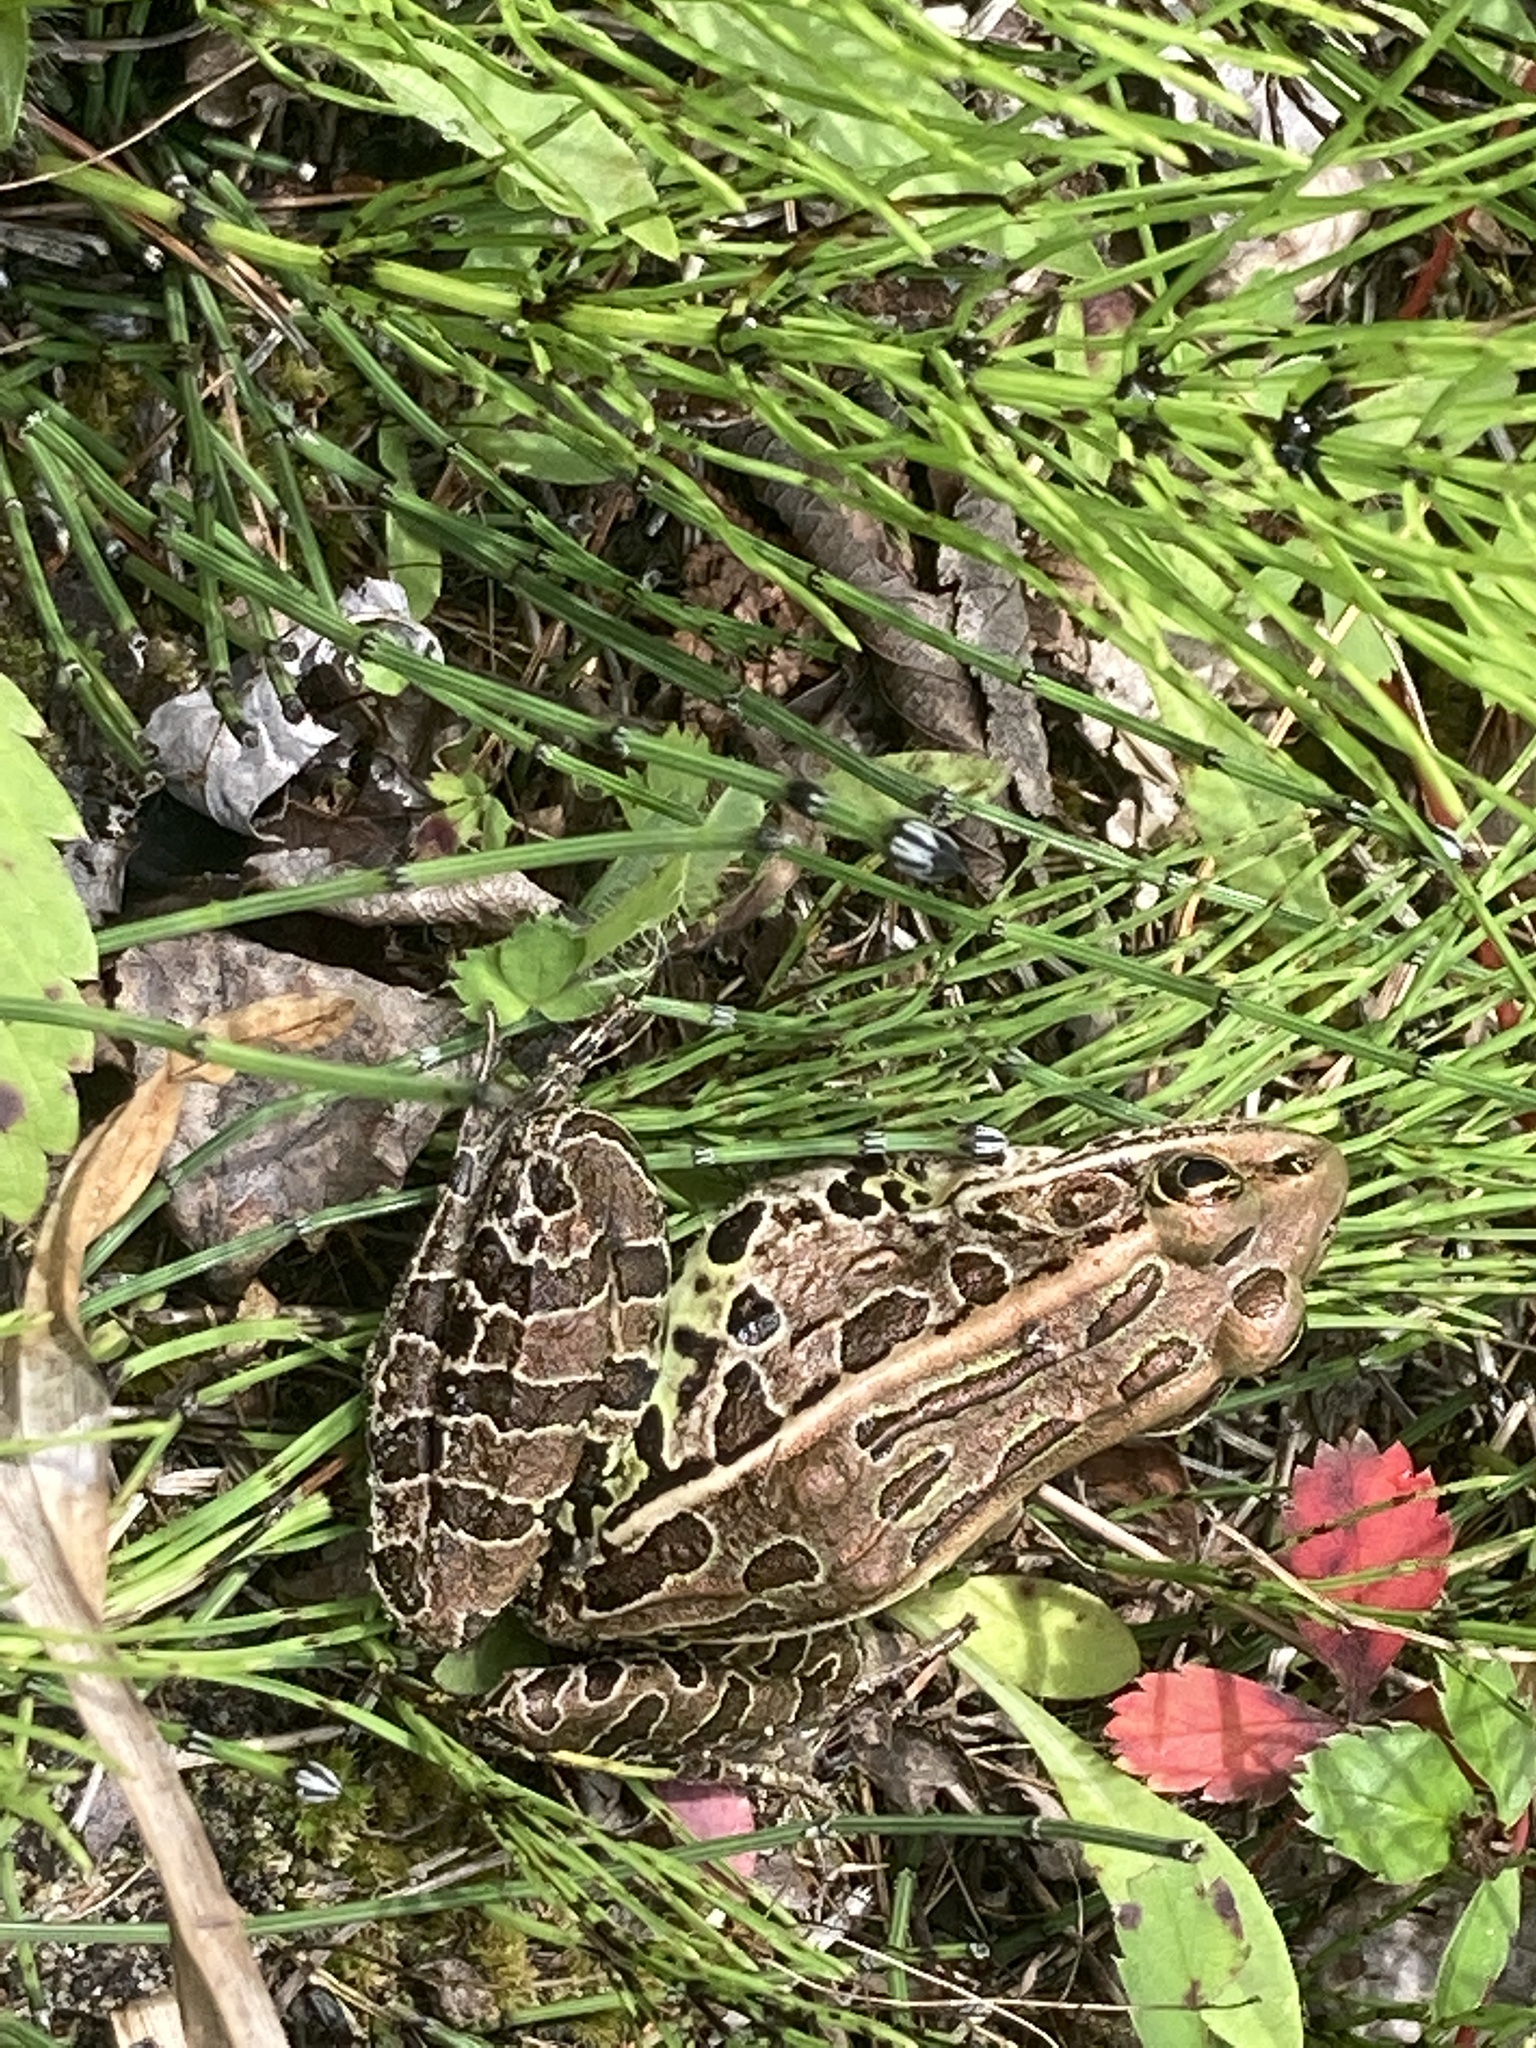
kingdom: Animalia
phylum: Chordata
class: Amphibia
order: Anura
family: Ranidae
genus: Lithobates
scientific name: Lithobates pipiens
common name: Northern leopard frog
